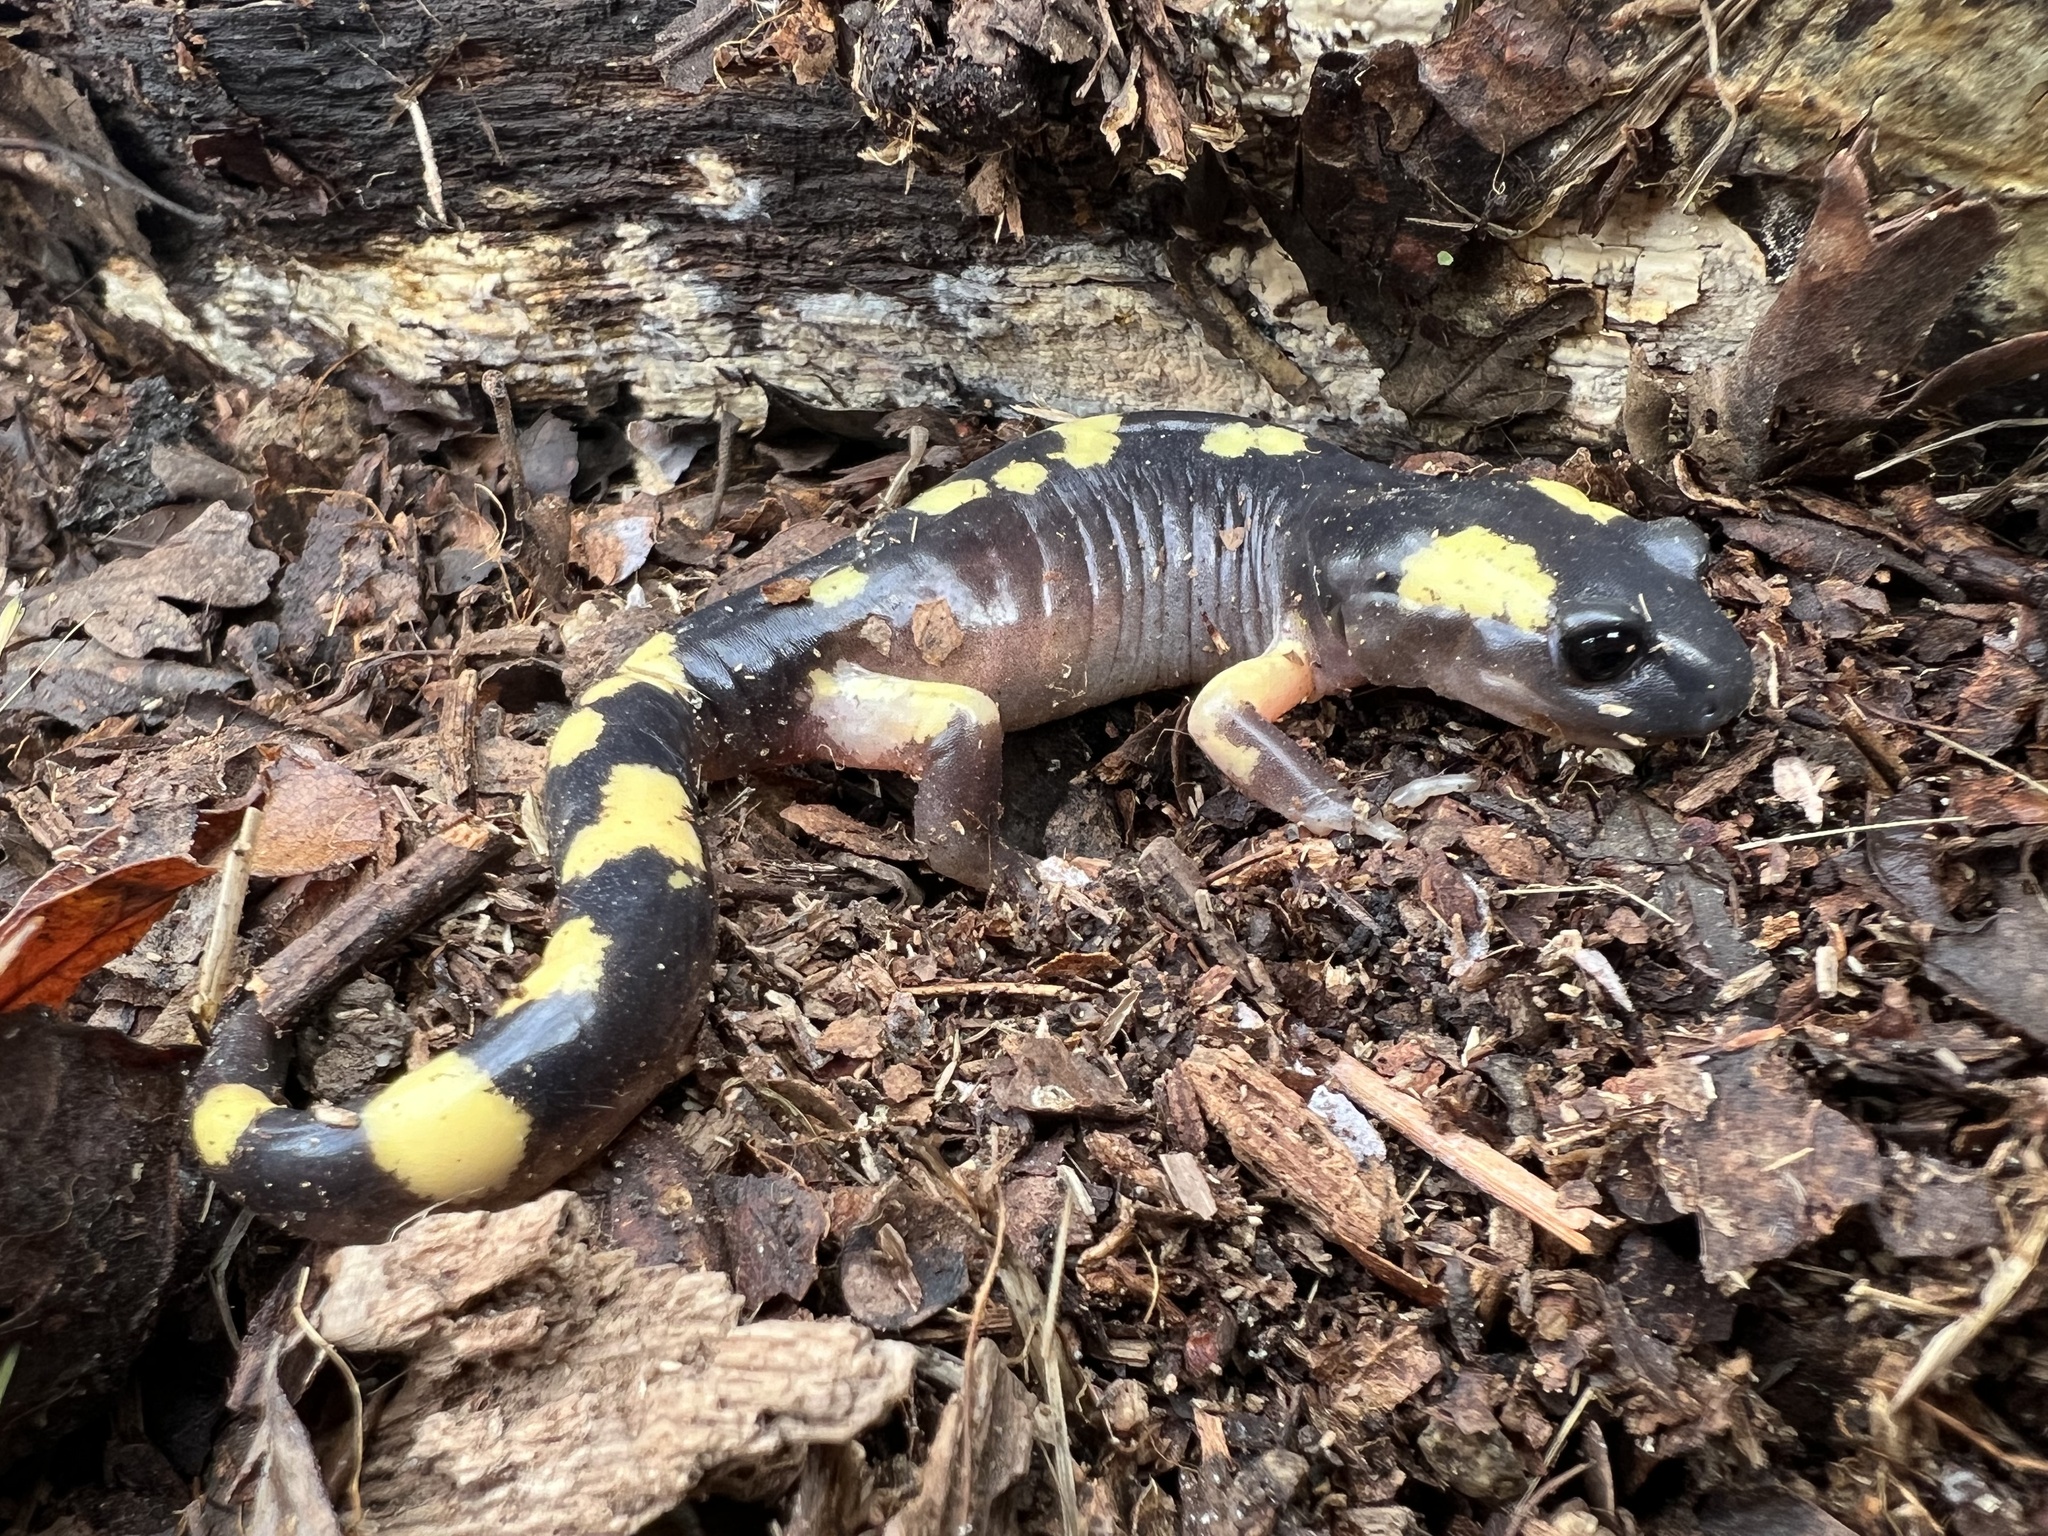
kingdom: Animalia
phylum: Chordata
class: Amphibia
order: Caudata
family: Plethodontidae
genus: Ensatina
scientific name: Ensatina eschscholtzii
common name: Ensatina
